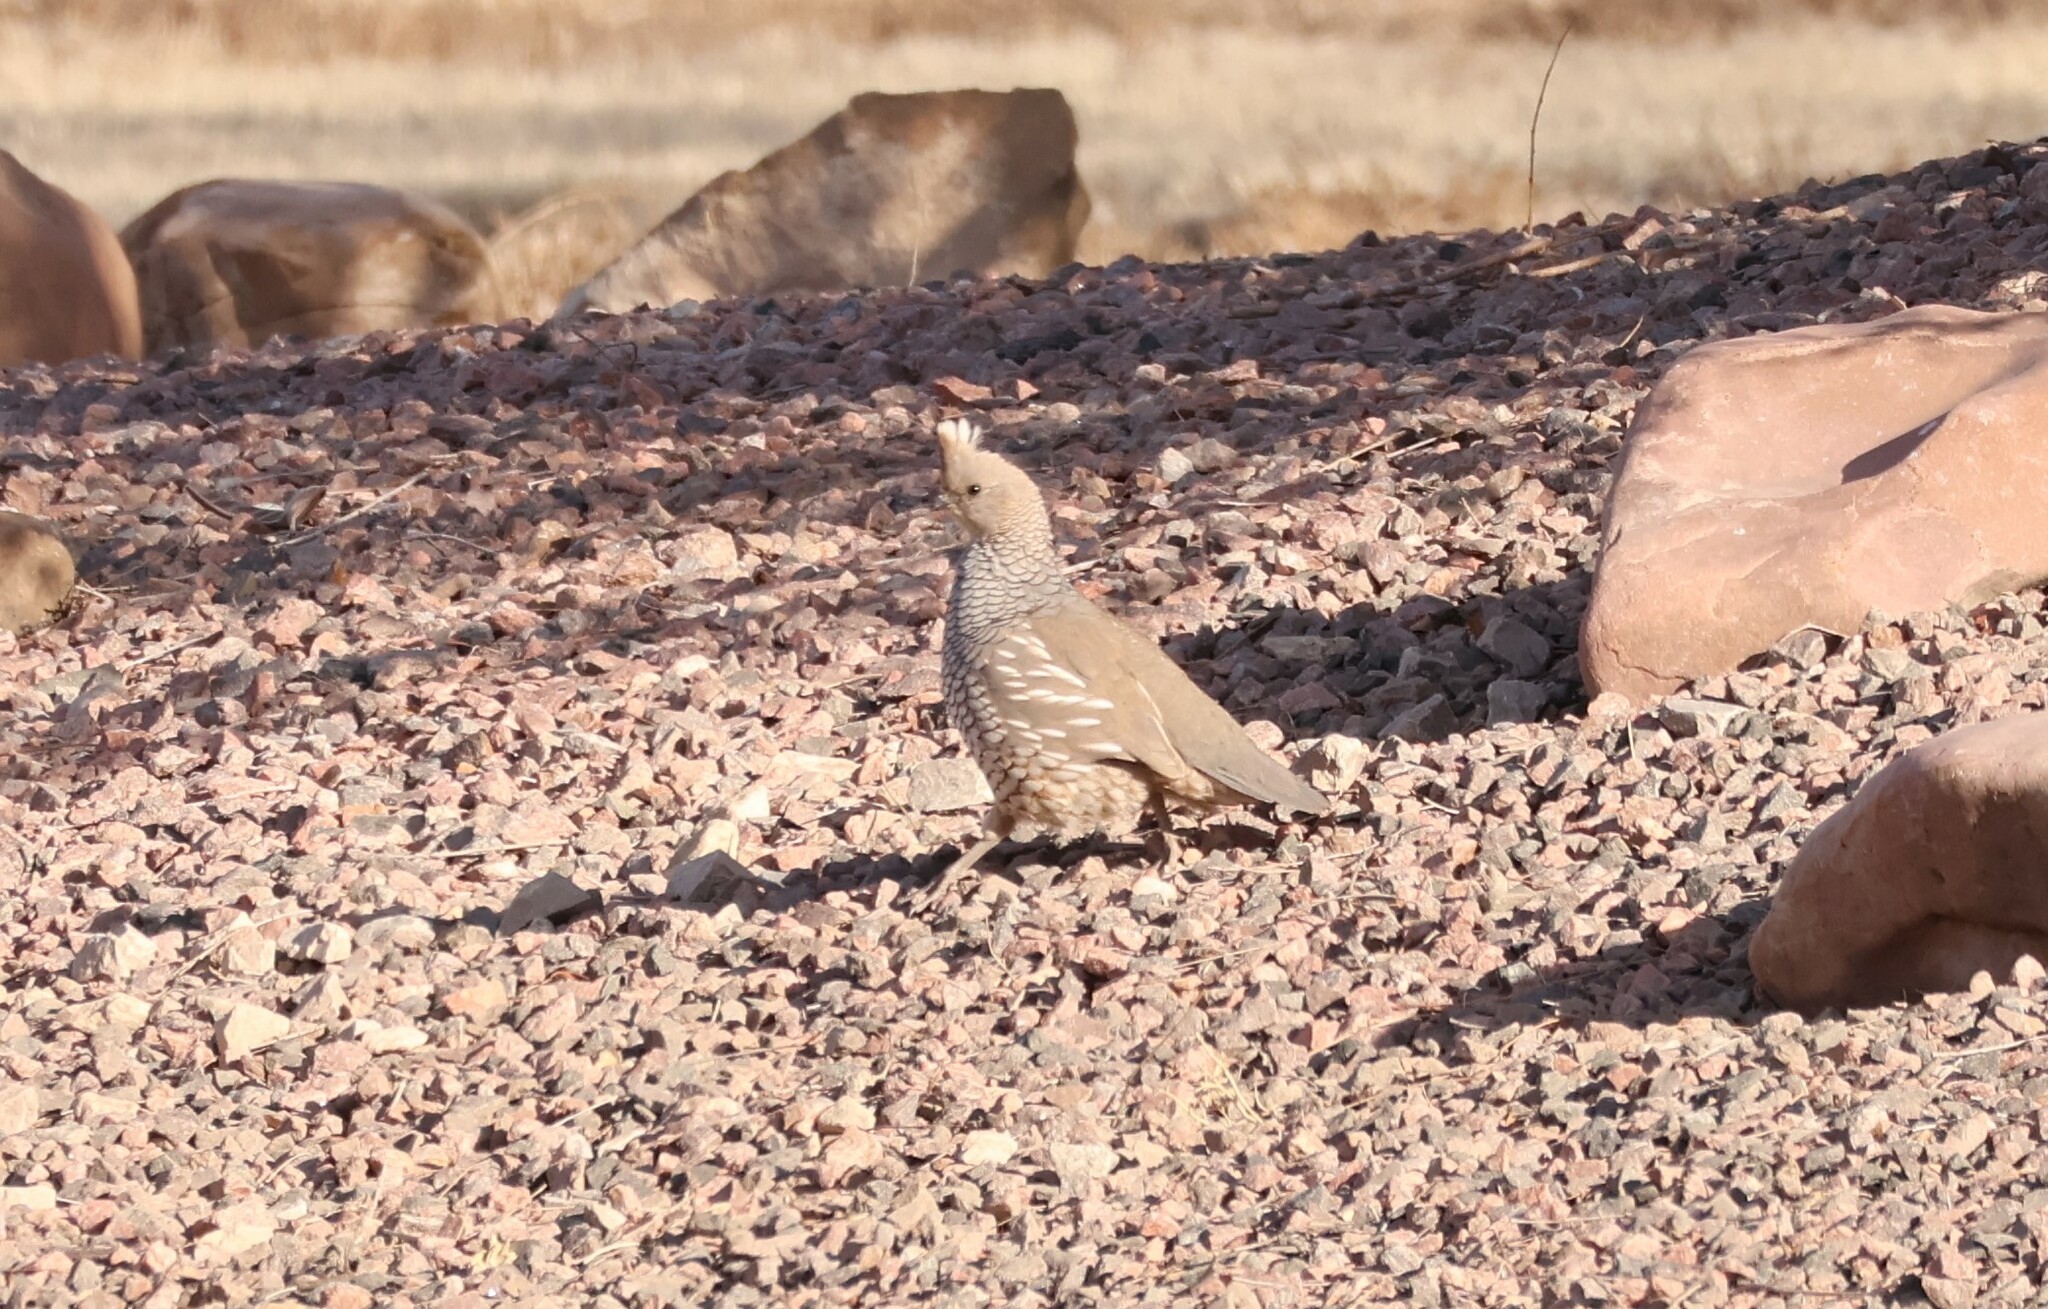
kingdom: Animalia
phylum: Chordata
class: Aves
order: Galliformes
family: Odontophoridae
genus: Callipepla
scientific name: Callipepla squamata
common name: Scaled quail
